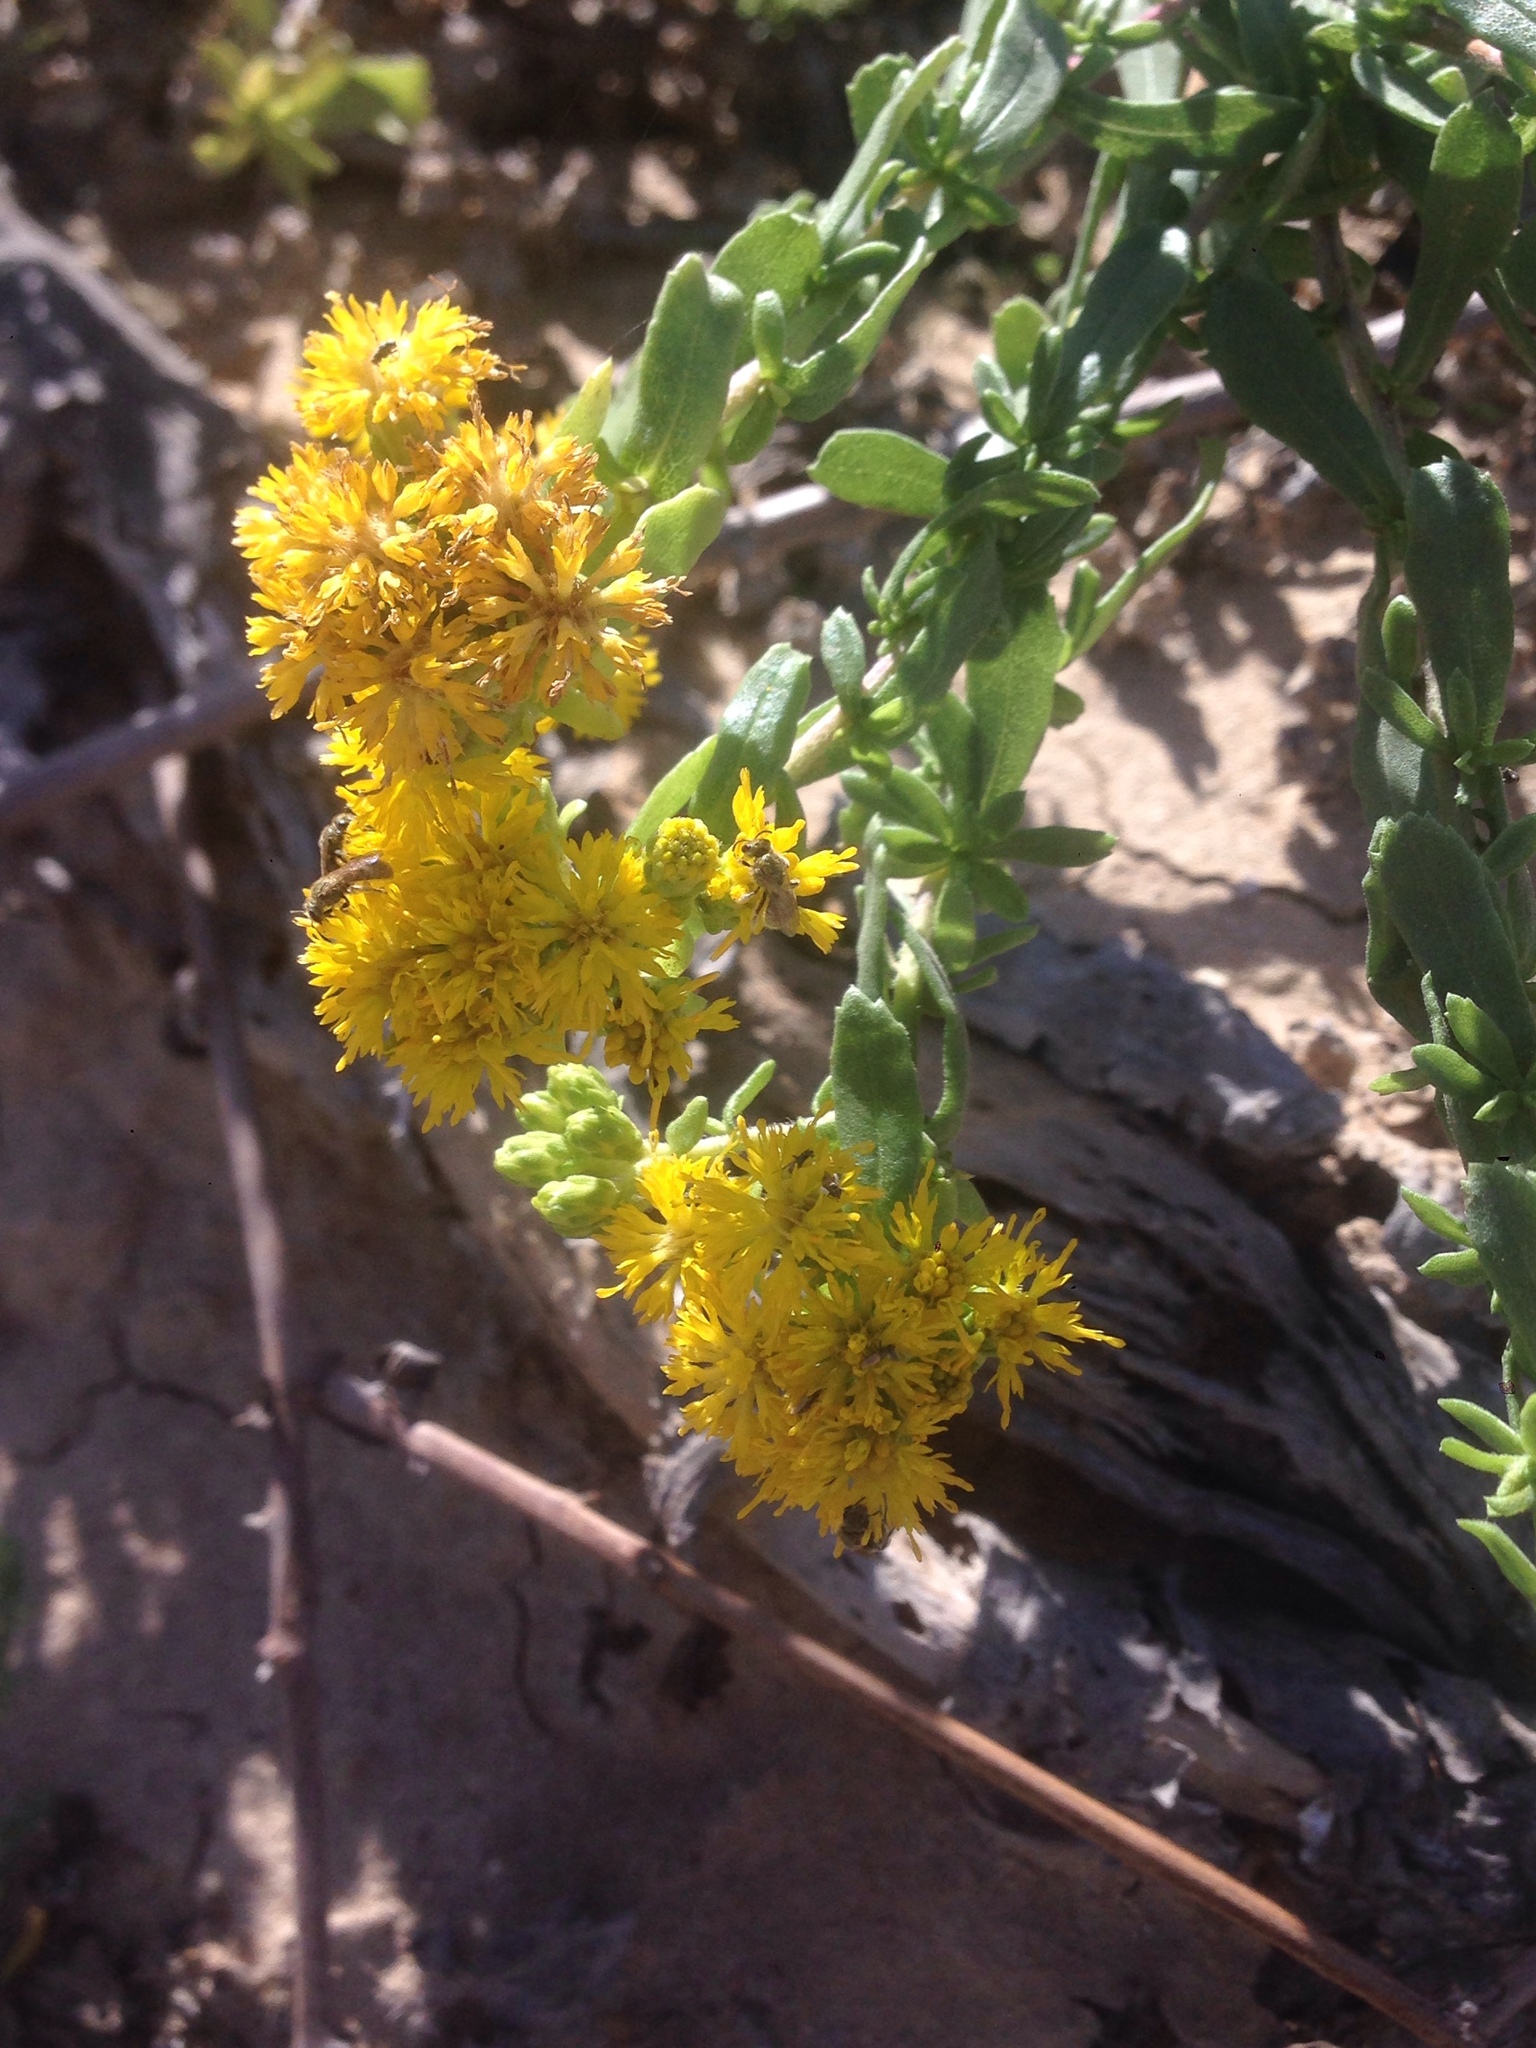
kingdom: Plantae
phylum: Tracheophyta
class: Magnoliopsida
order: Asterales
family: Asteraceae
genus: Isocoma
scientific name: Isocoma menziesii
